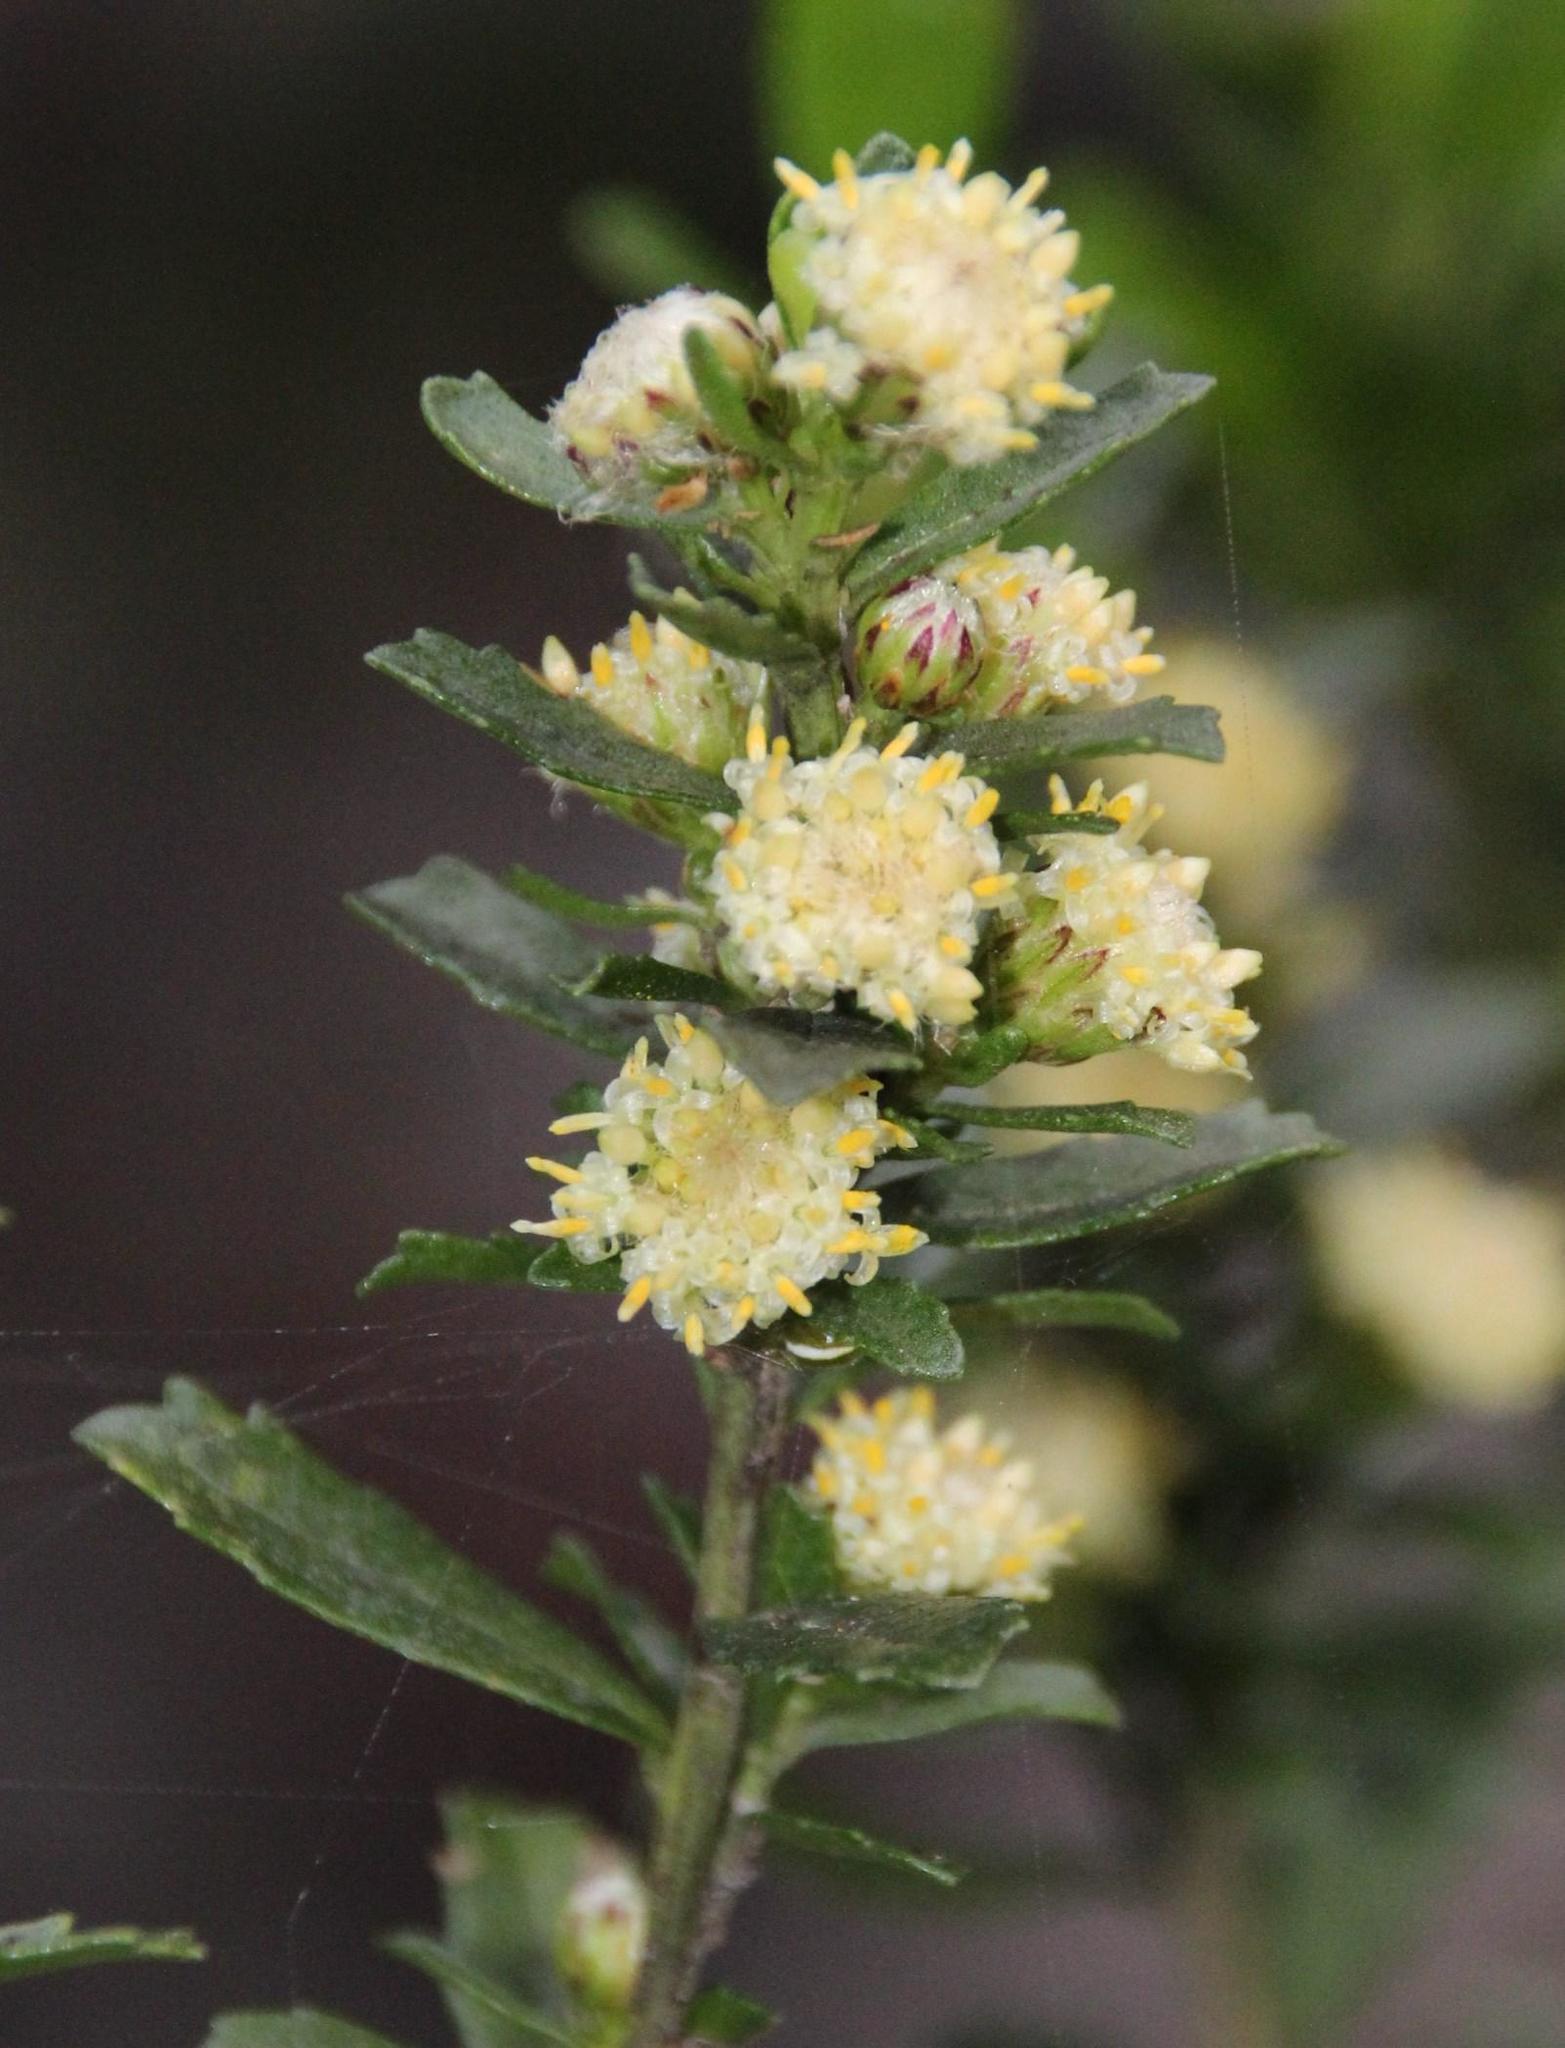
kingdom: Plantae
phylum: Tracheophyta
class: Magnoliopsida
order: Asterales
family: Asteraceae
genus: Baccharis
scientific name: Baccharis obovata
